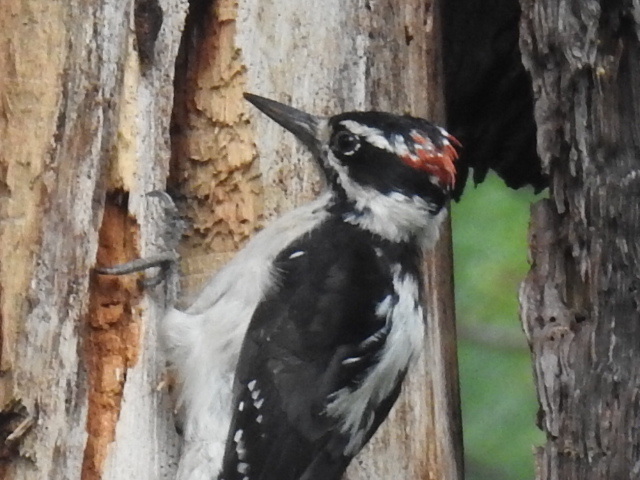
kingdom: Animalia
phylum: Chordata
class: Aves
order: Piciformes
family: Picidae
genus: Leuconotopicus
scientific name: Leuconotopicus villosus
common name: Hairy woodpecker
